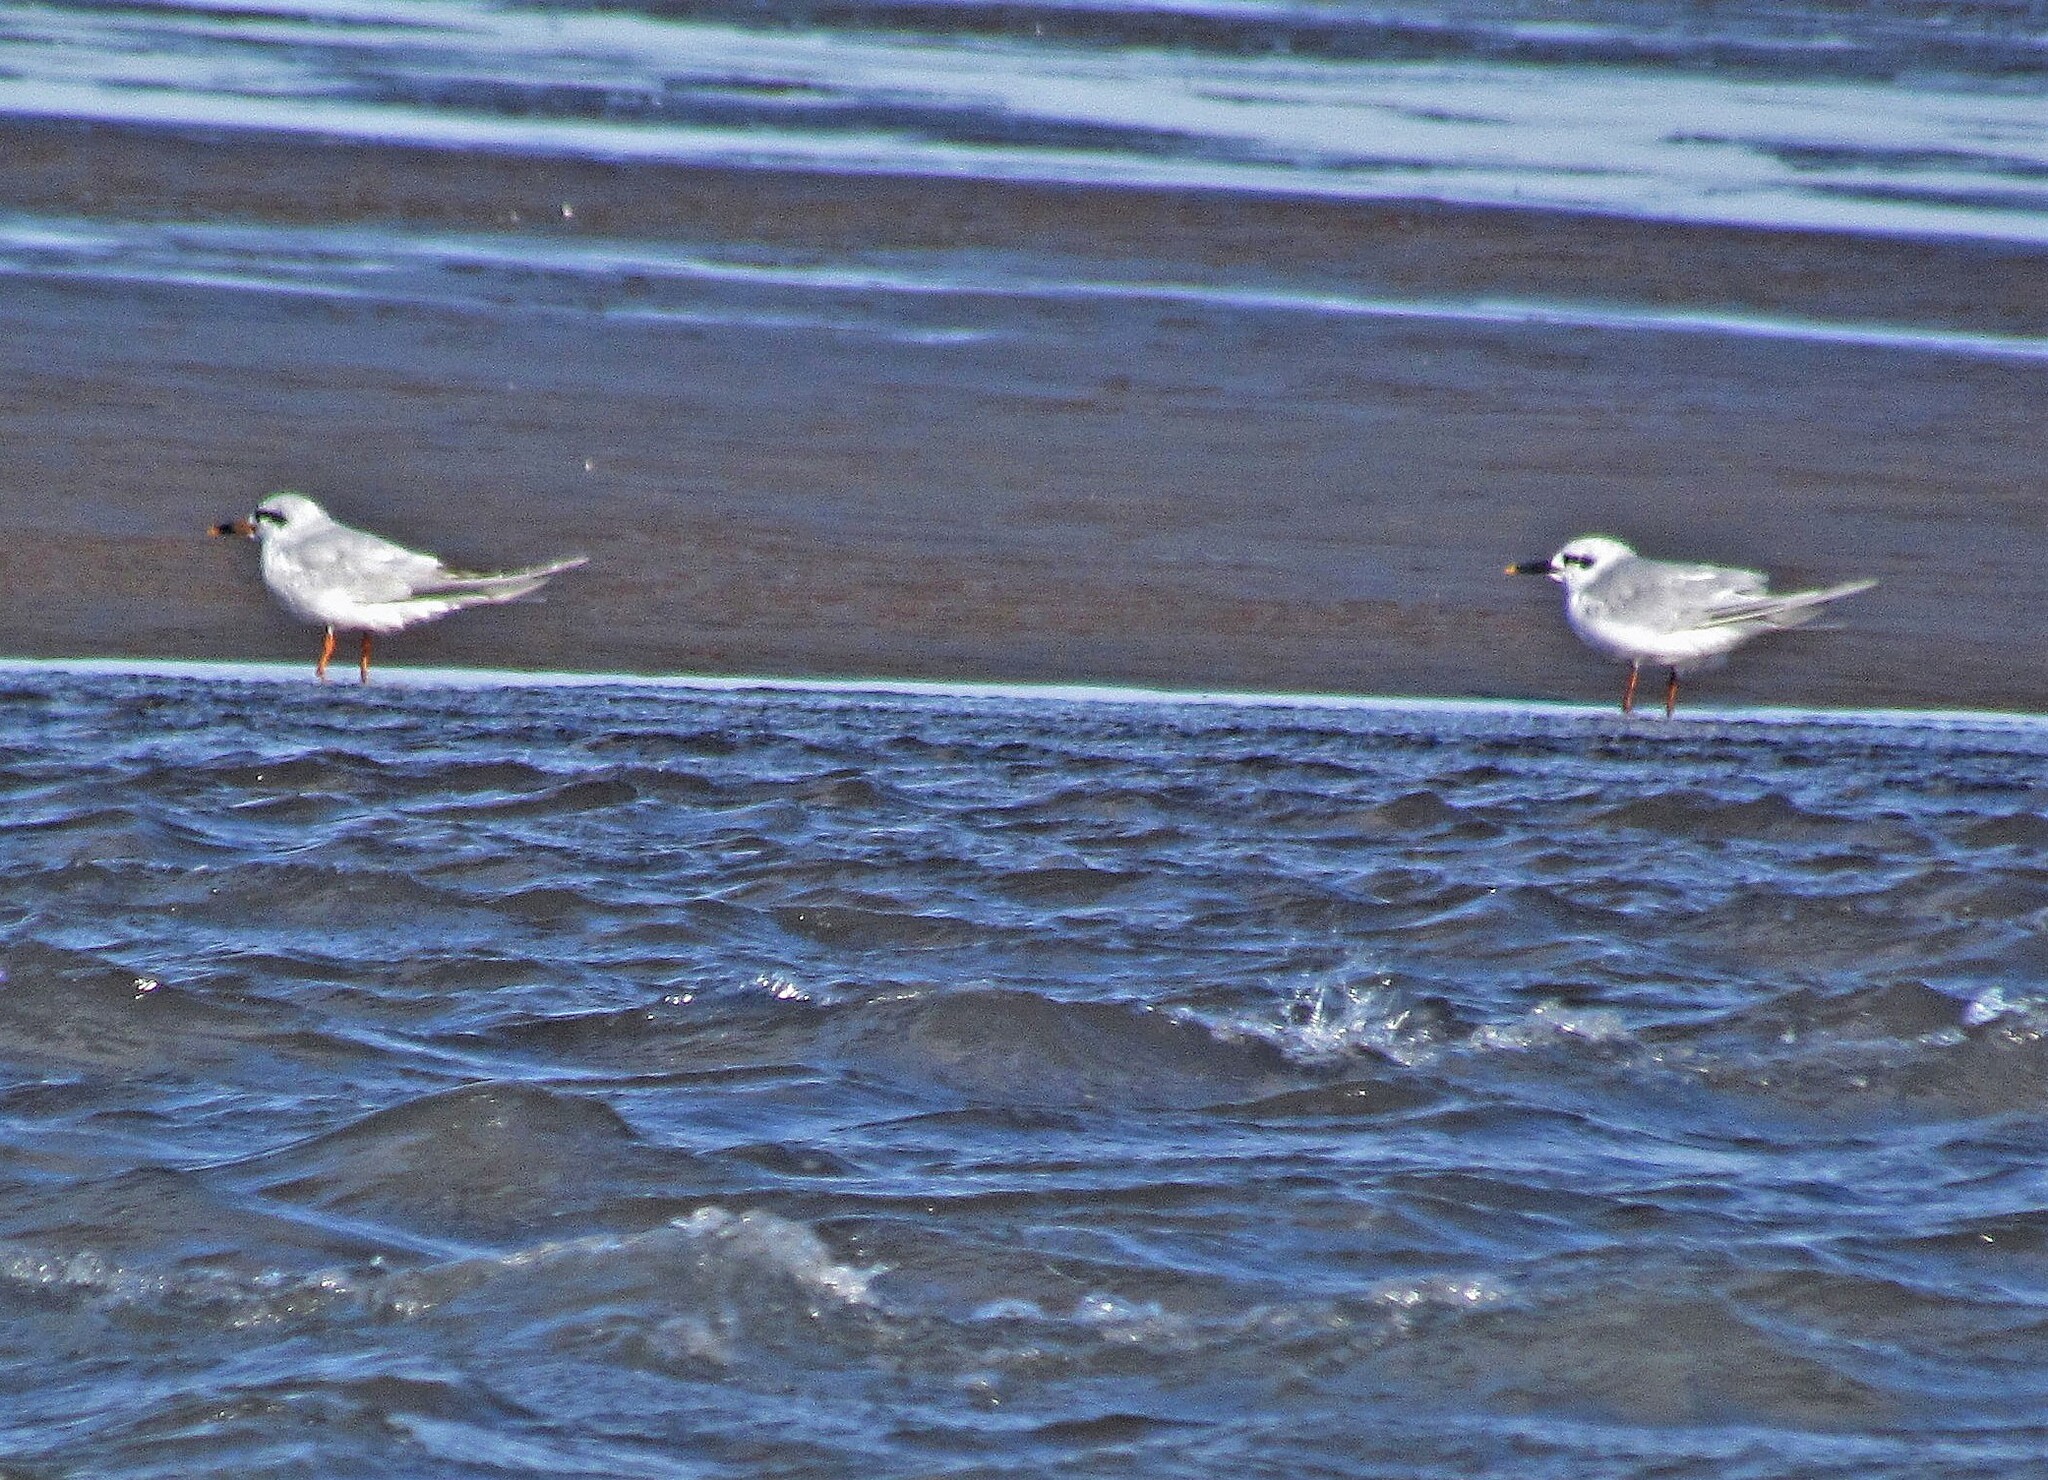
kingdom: Animalia
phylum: Chordata
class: Aves
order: Charadriiformes
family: Laridae
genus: Sterna
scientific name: Sterna trudeaui
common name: Snowy-crowned tern
